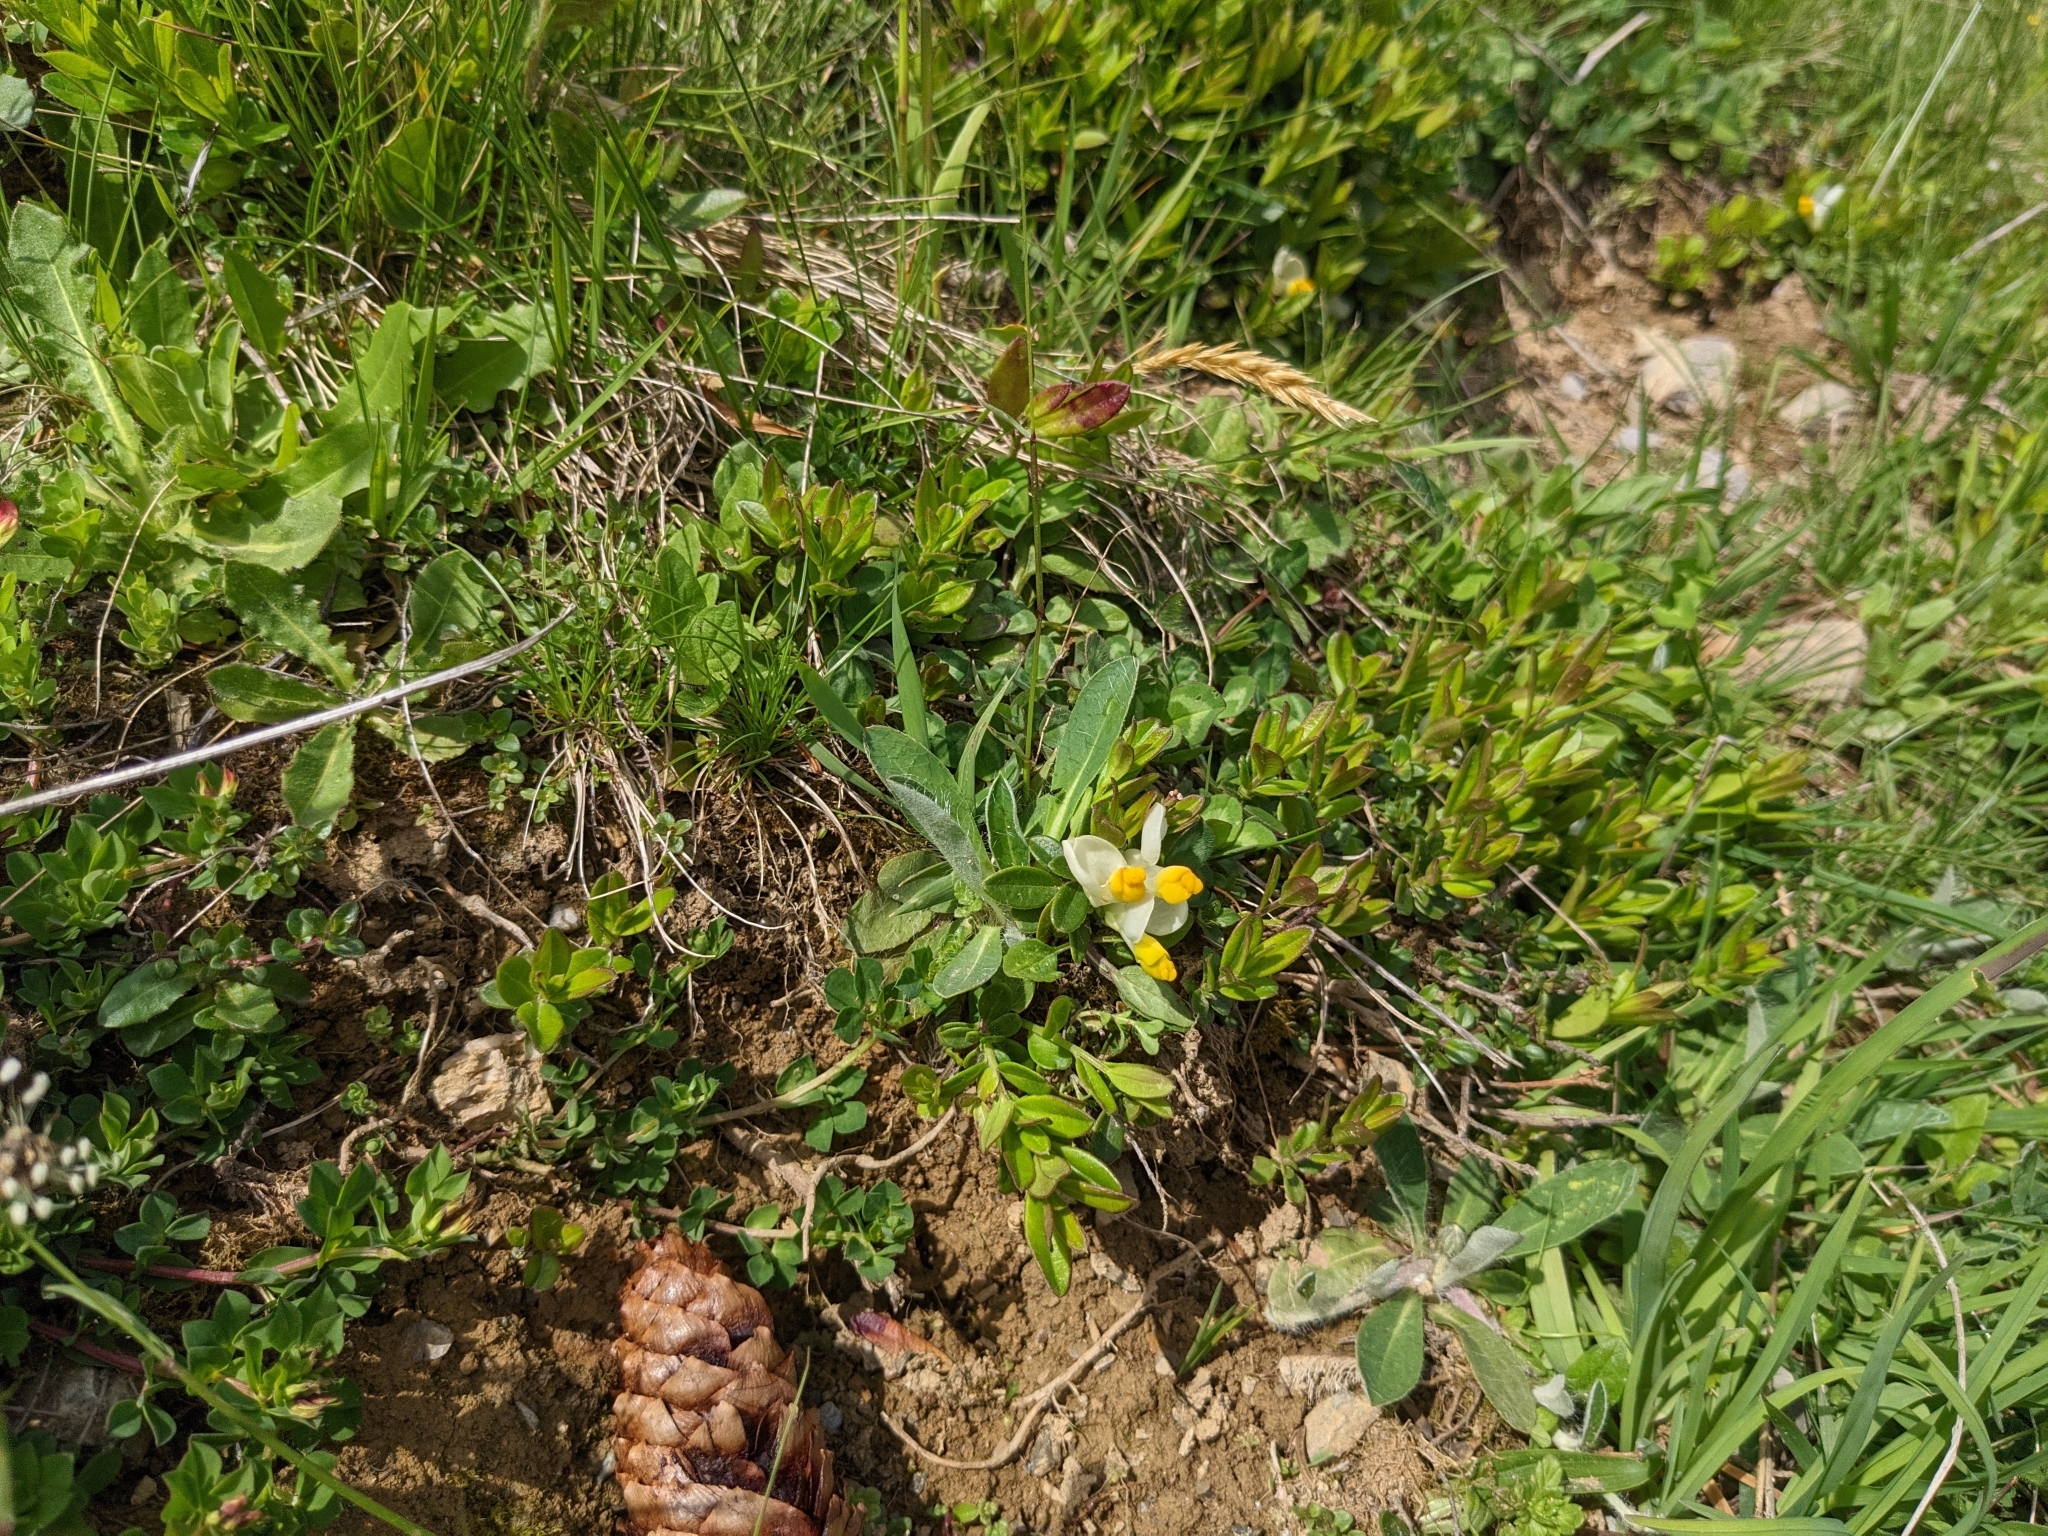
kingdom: Plantae
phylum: Tracheophyta
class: Magnoliopsida
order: Fabales
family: Polygalaceae
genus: Polygaloides
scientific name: Polygaloides chamaebuxus
